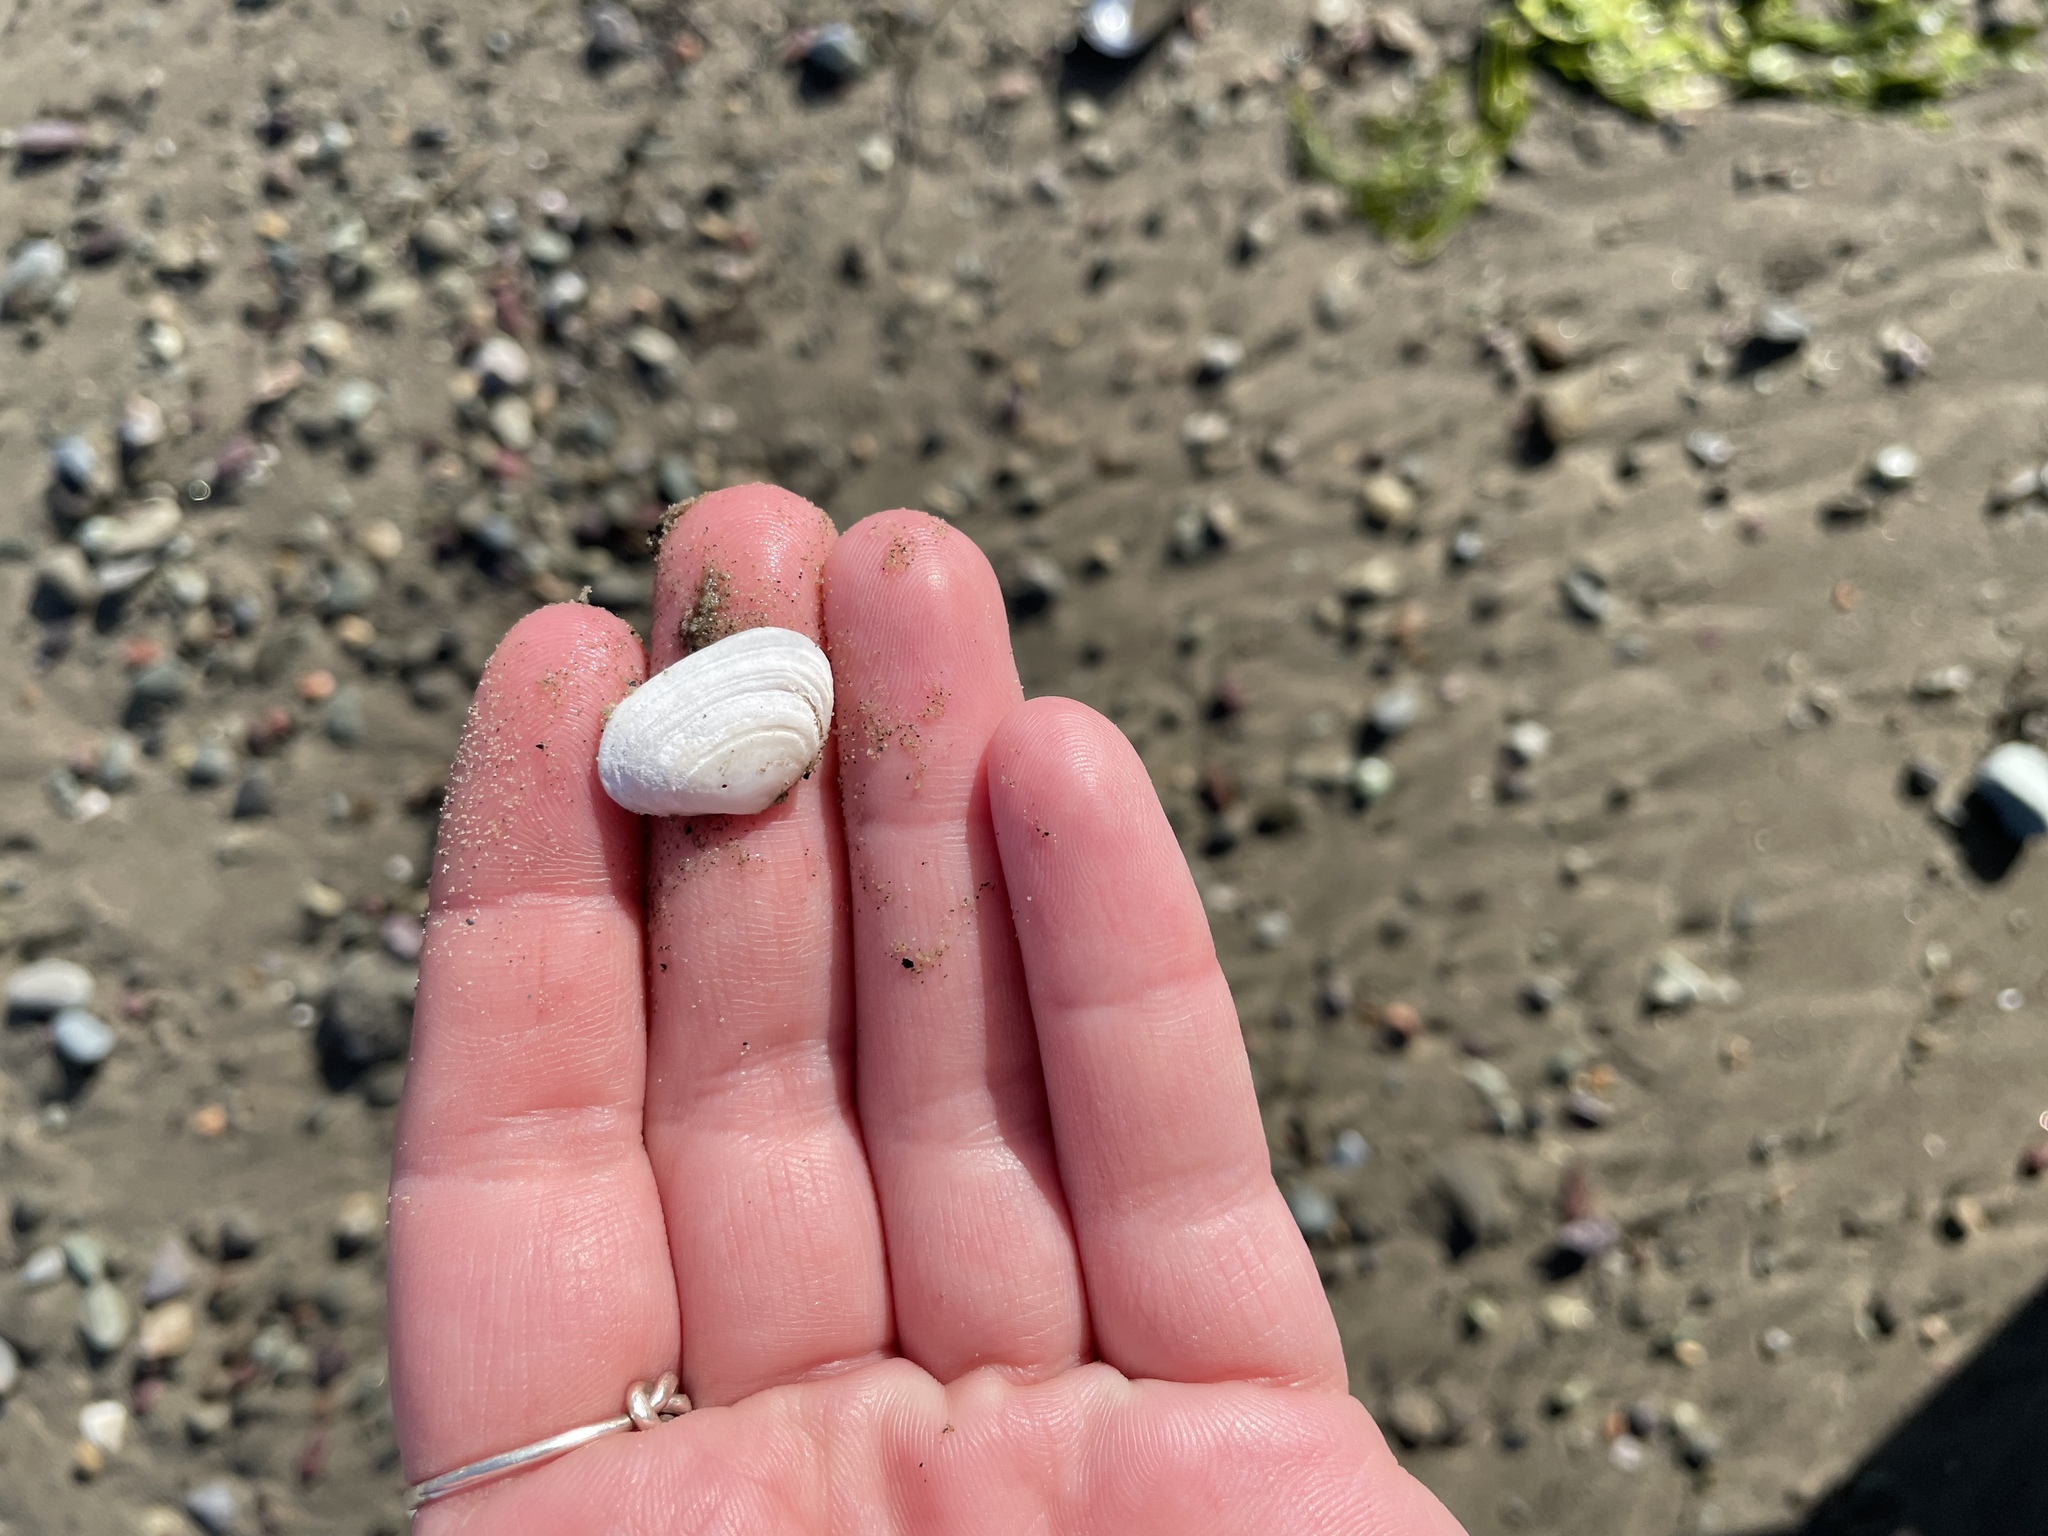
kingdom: Animalia
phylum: Mollusca
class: Bivalvia
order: Myida
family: Myidae
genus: Mya
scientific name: Mya arenaria
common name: Soft-shelled clam
